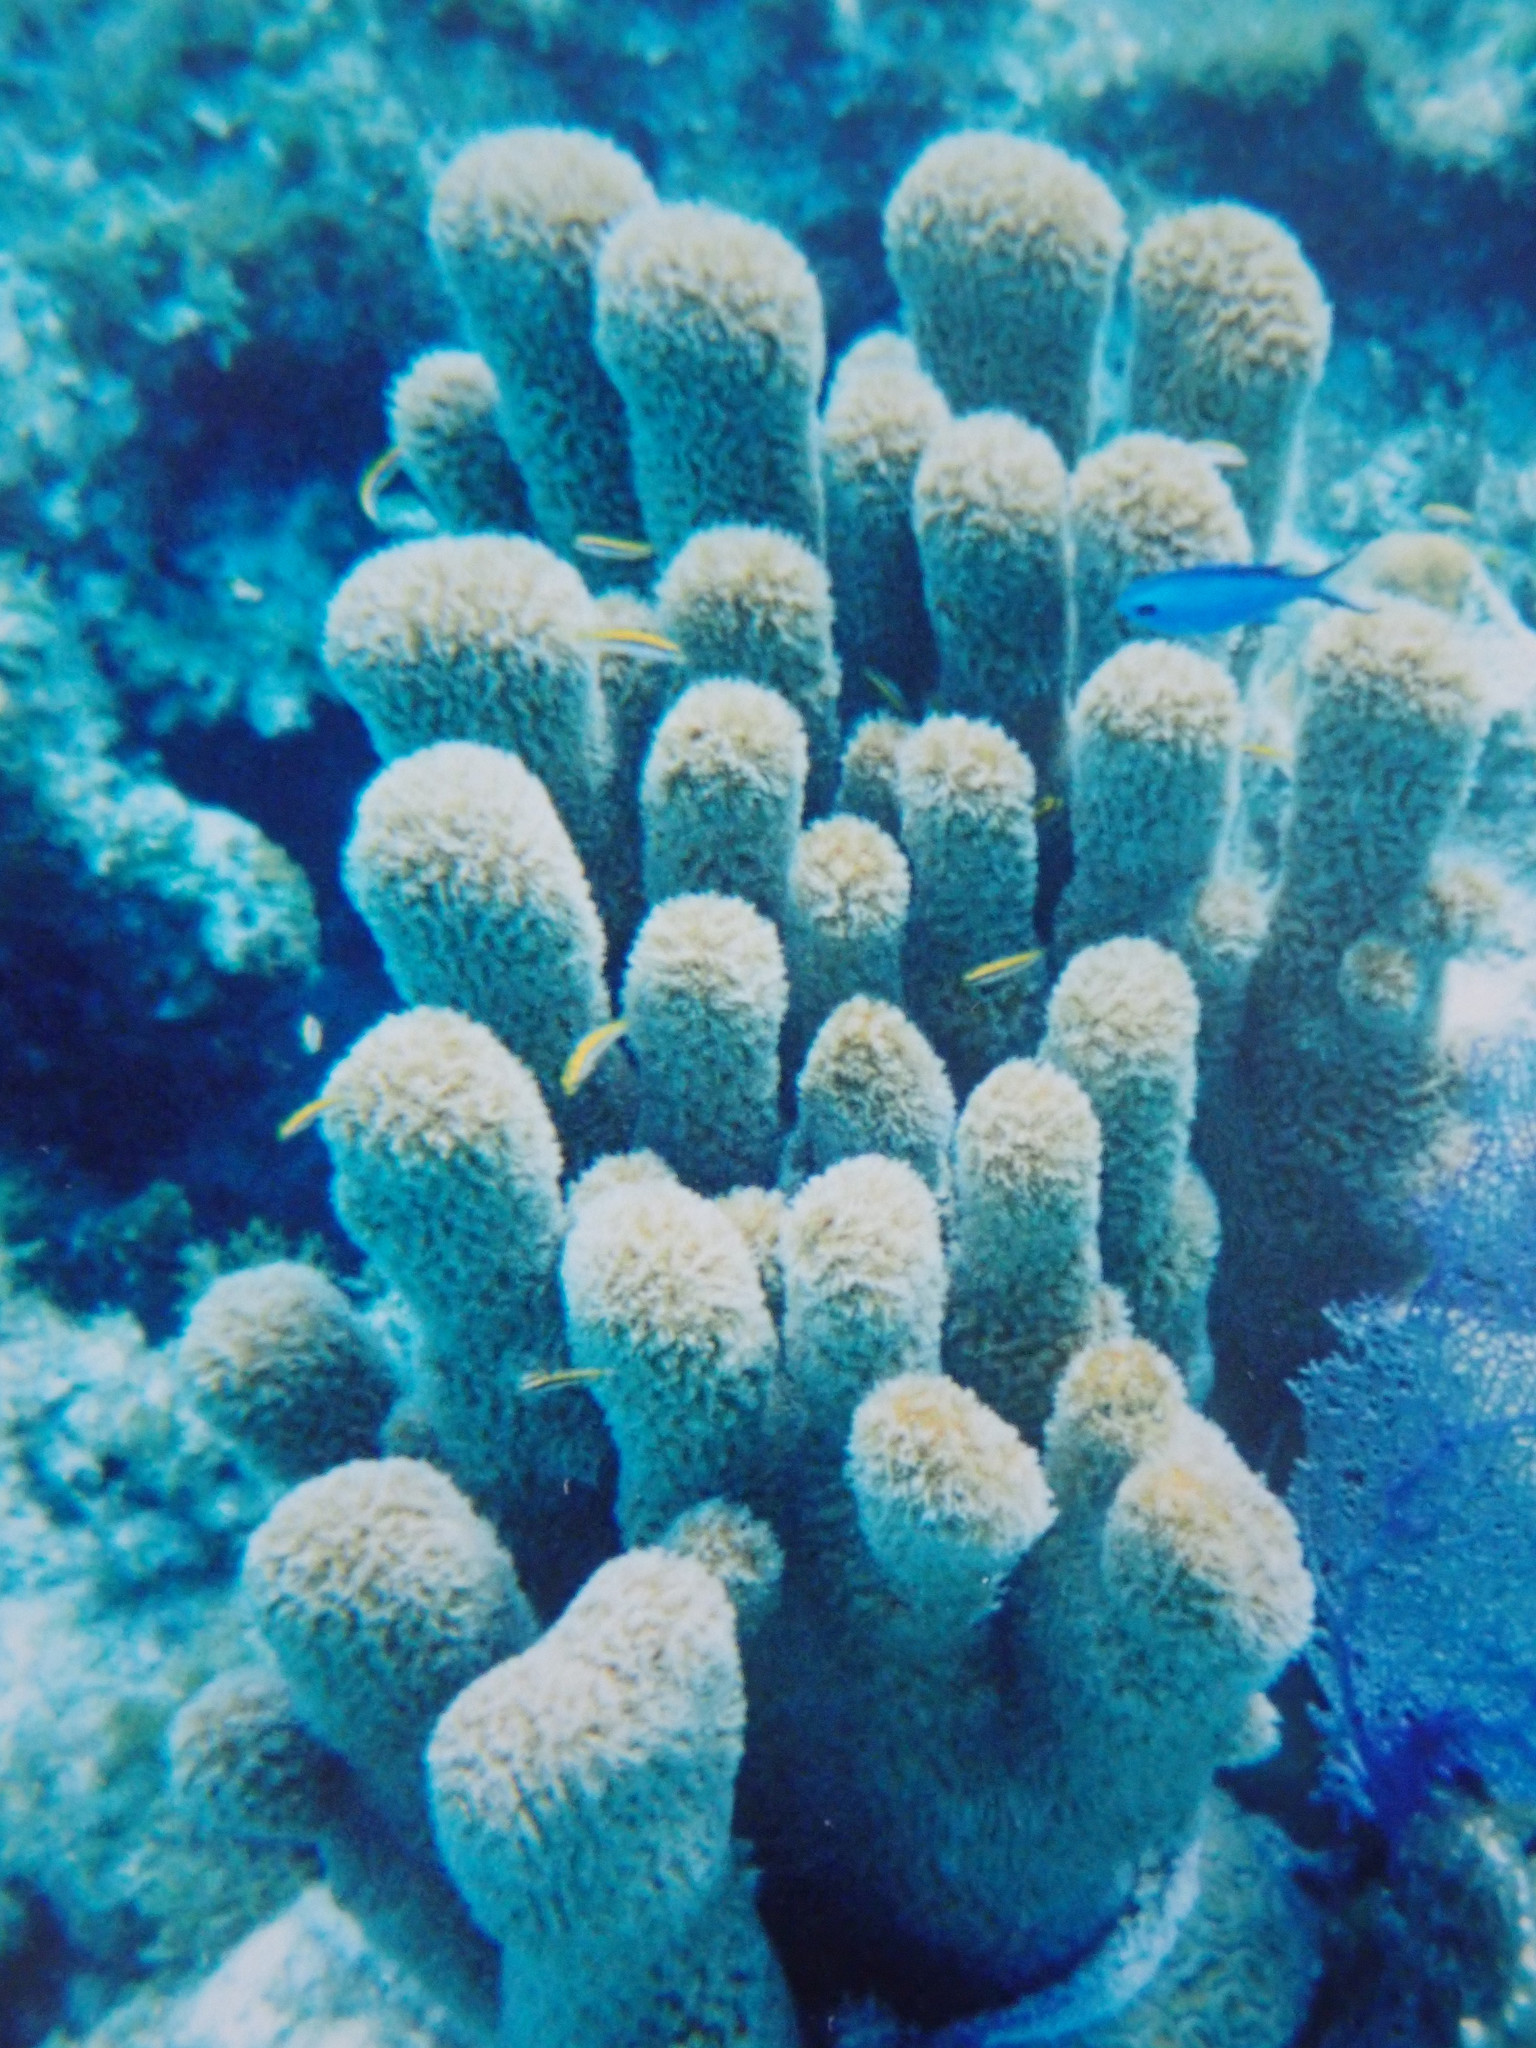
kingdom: Animalia
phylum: Cnidaria
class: Anthozoa
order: Scleractinia
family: Meandrinidae
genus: Dendrogyra
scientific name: Dendrogyra cylindrus
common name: Pillar coral
